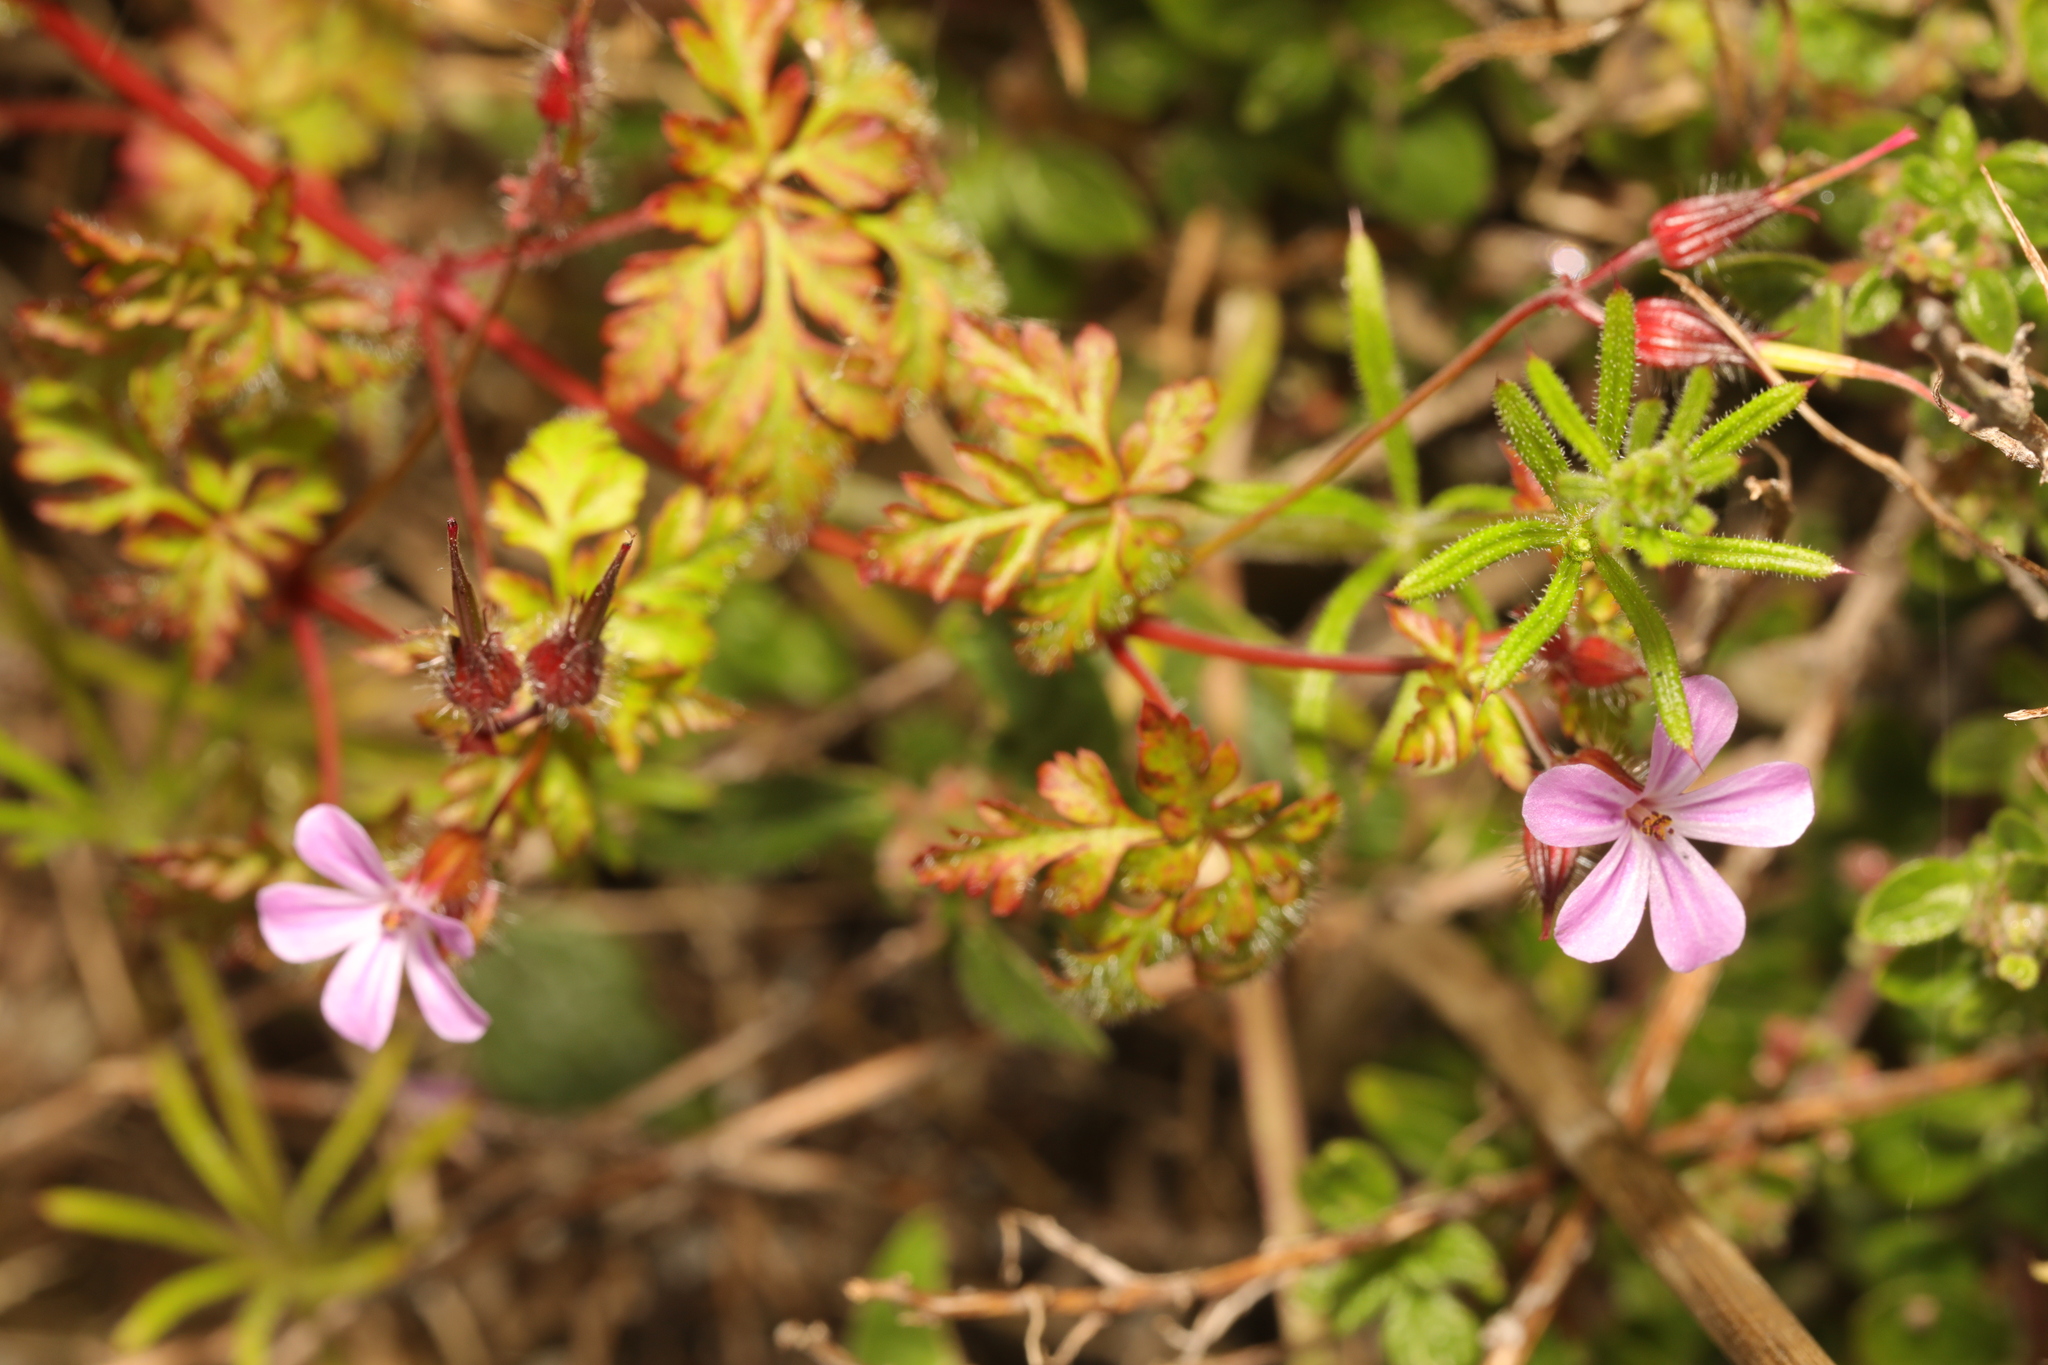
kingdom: Plantae
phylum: Tracheophyta
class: Magnoliopsida
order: Geraniales
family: Geraniaceae
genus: Geranium
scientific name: Geranium robertianum
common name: Herb-robert
